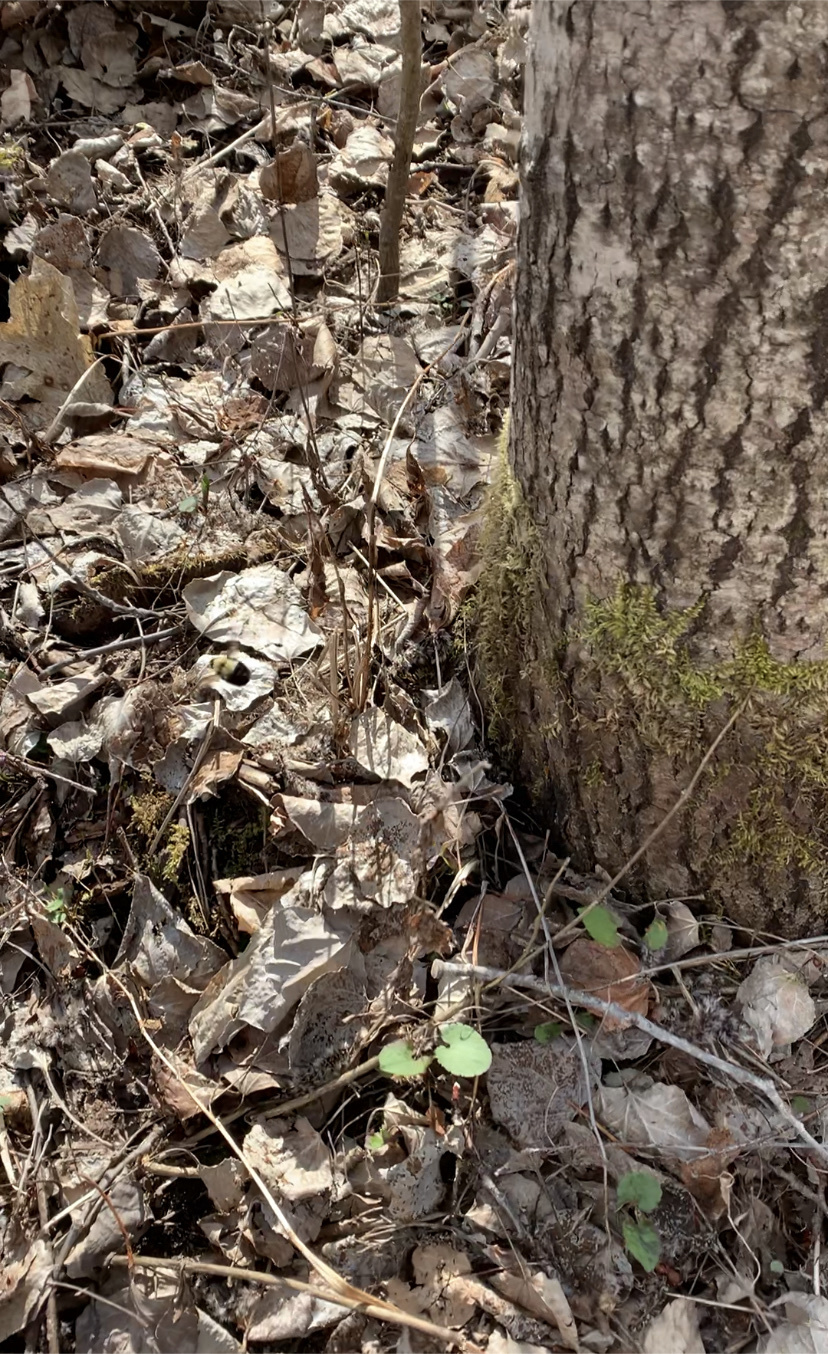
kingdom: Animalia
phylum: Arthropoda
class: Insecta
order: Hymenoptera
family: Apidae
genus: Bombus
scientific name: Bombus
